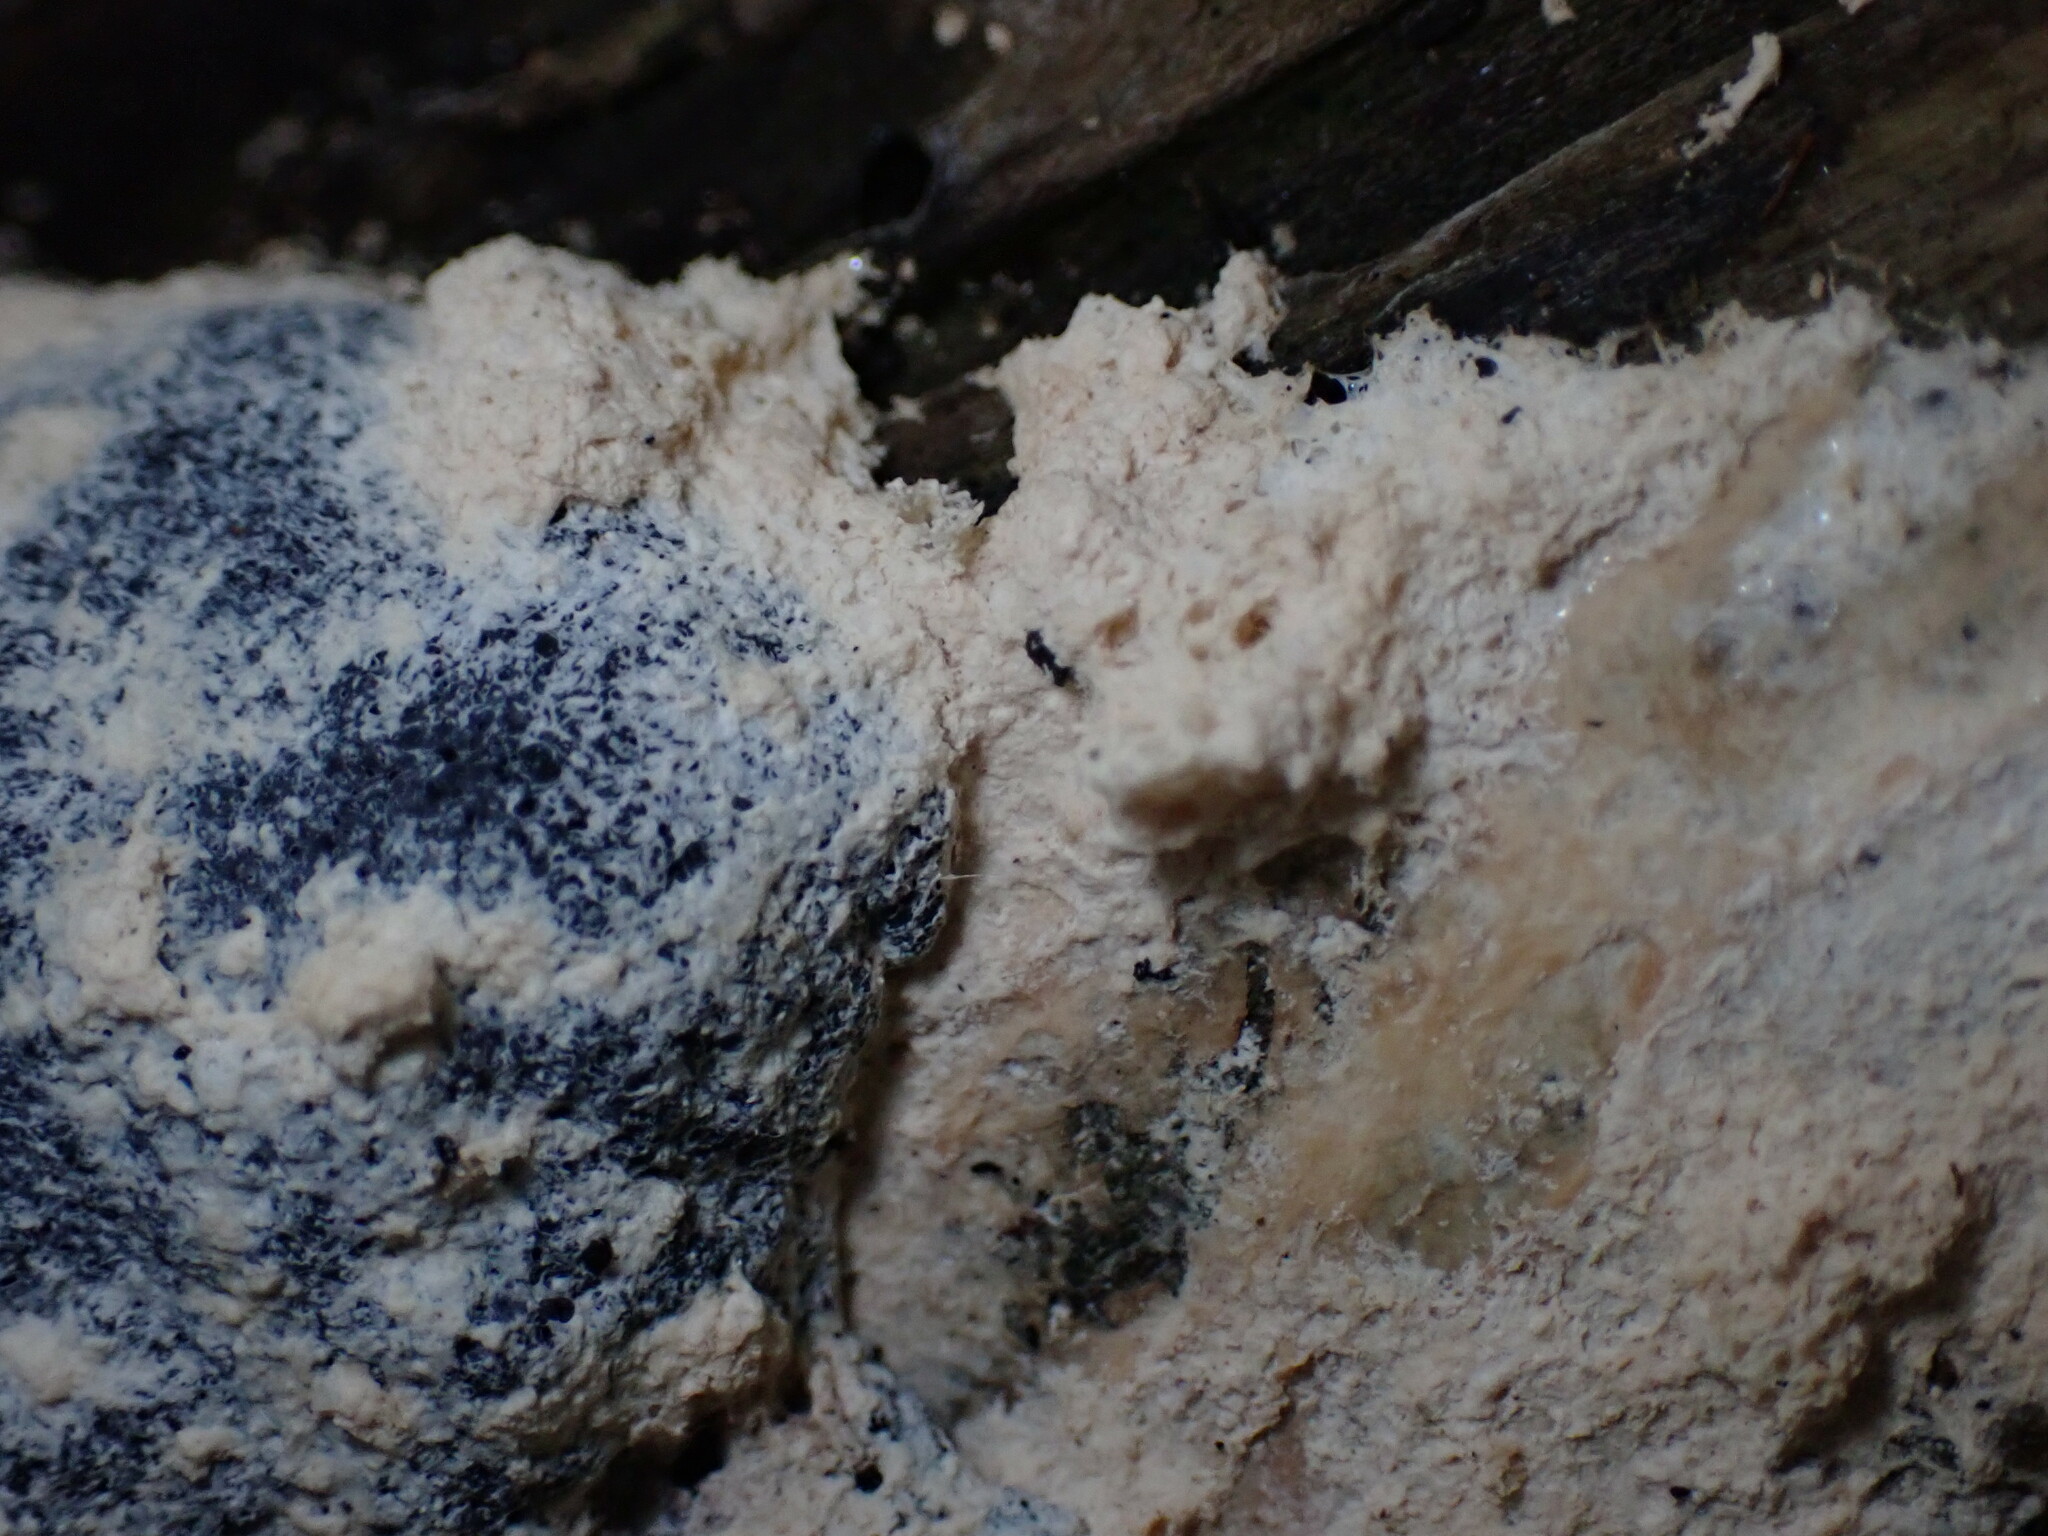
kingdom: Protozoa
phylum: Mycetozoa
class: Myxomycetes
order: Physarales
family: Physaraceae
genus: Fuligo
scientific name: Fuligo septica
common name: Dog vomit slime mold
